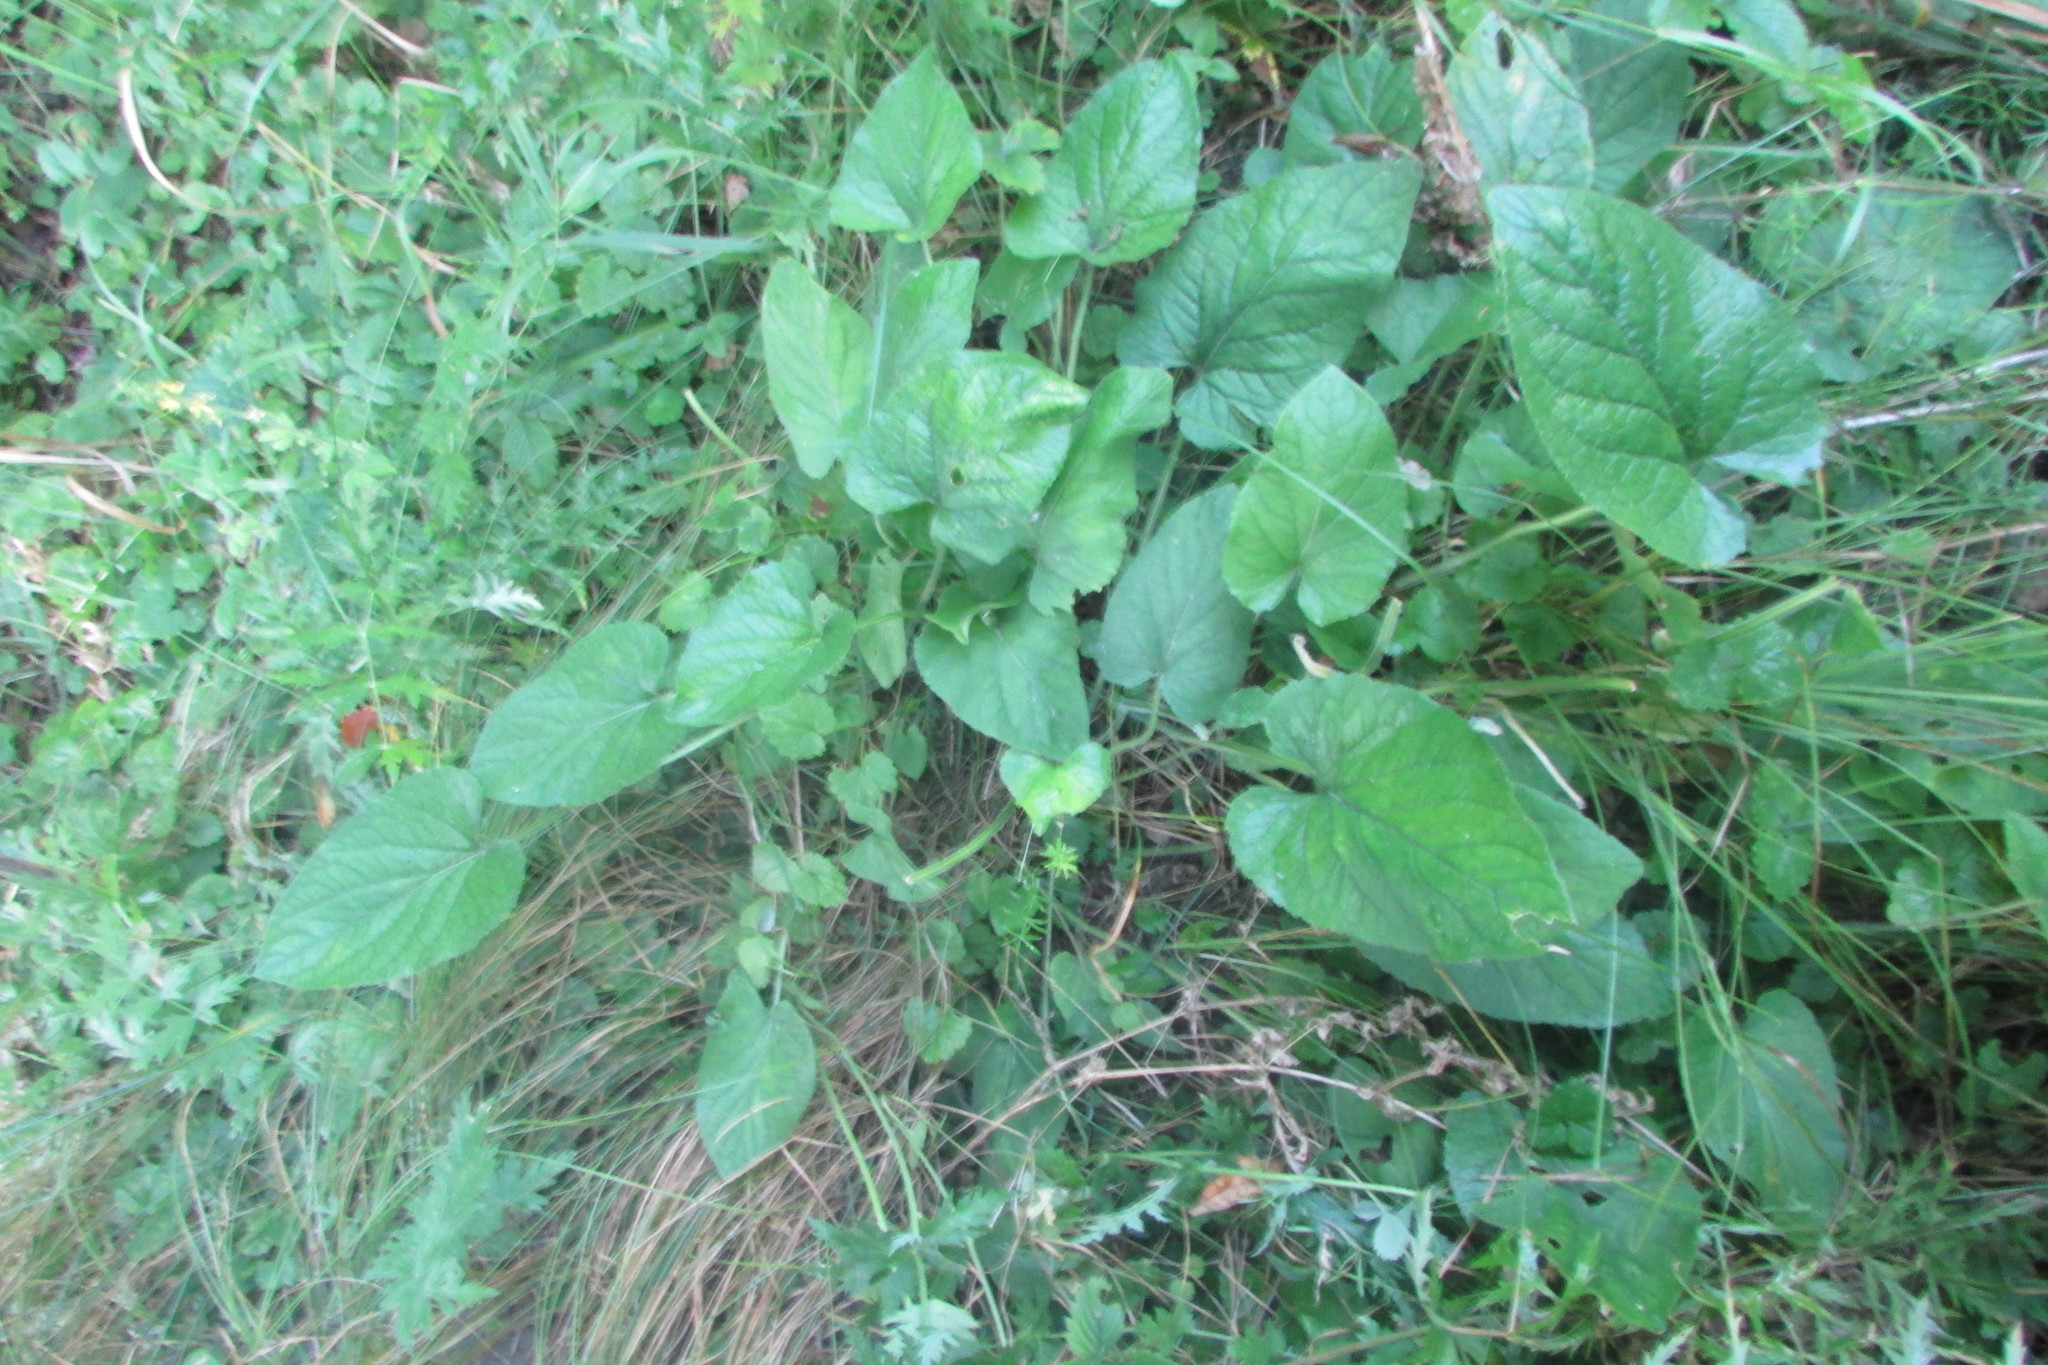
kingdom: Plantae
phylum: Tracheophyta
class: Magnoliopsida
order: Malpighiales
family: Violaceae
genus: Viola
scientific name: Viola hirta
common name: Hairy violet
